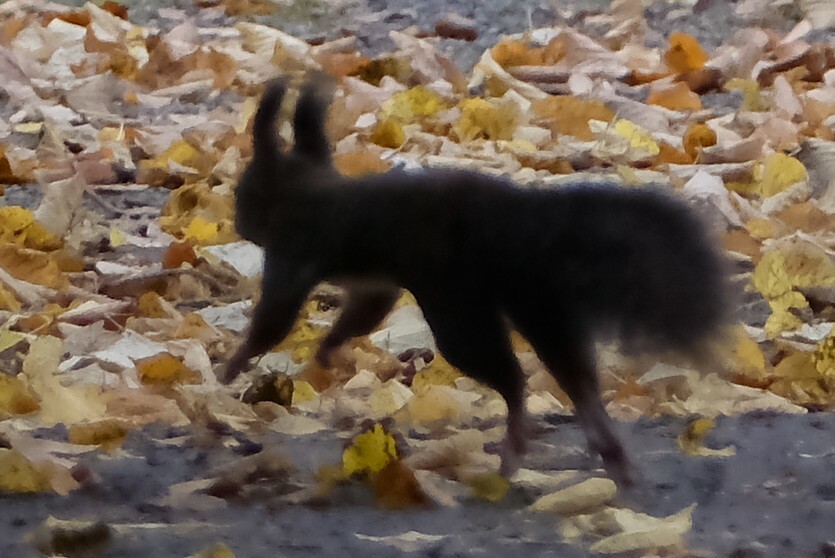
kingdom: Animalia
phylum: Chordata
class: Mammalia
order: Rodentia
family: Sciuridae
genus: Sciurus
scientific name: Sciurus vulgaris
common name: Eurasian red squirrel
